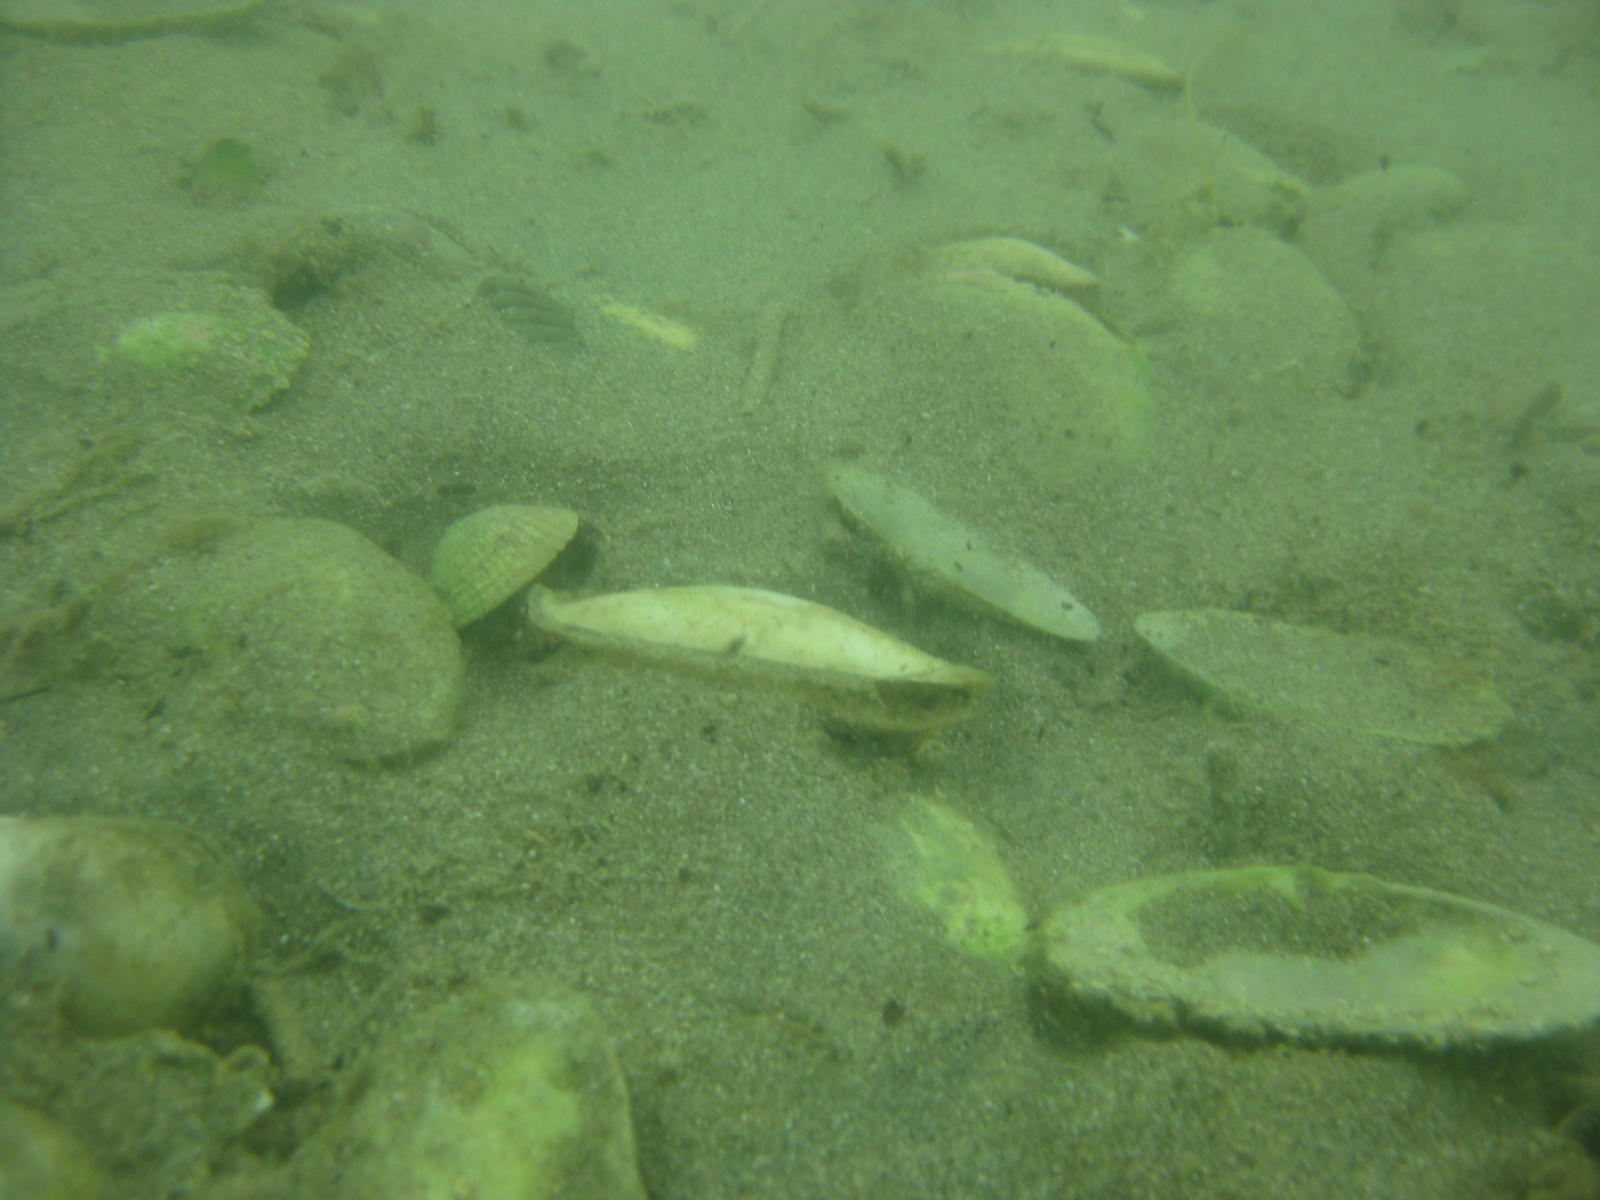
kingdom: Animalia
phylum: Mollusca
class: Bivalvia
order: Venerida
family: Mesodesmatidae
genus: Paphies
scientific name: Paphies australis
